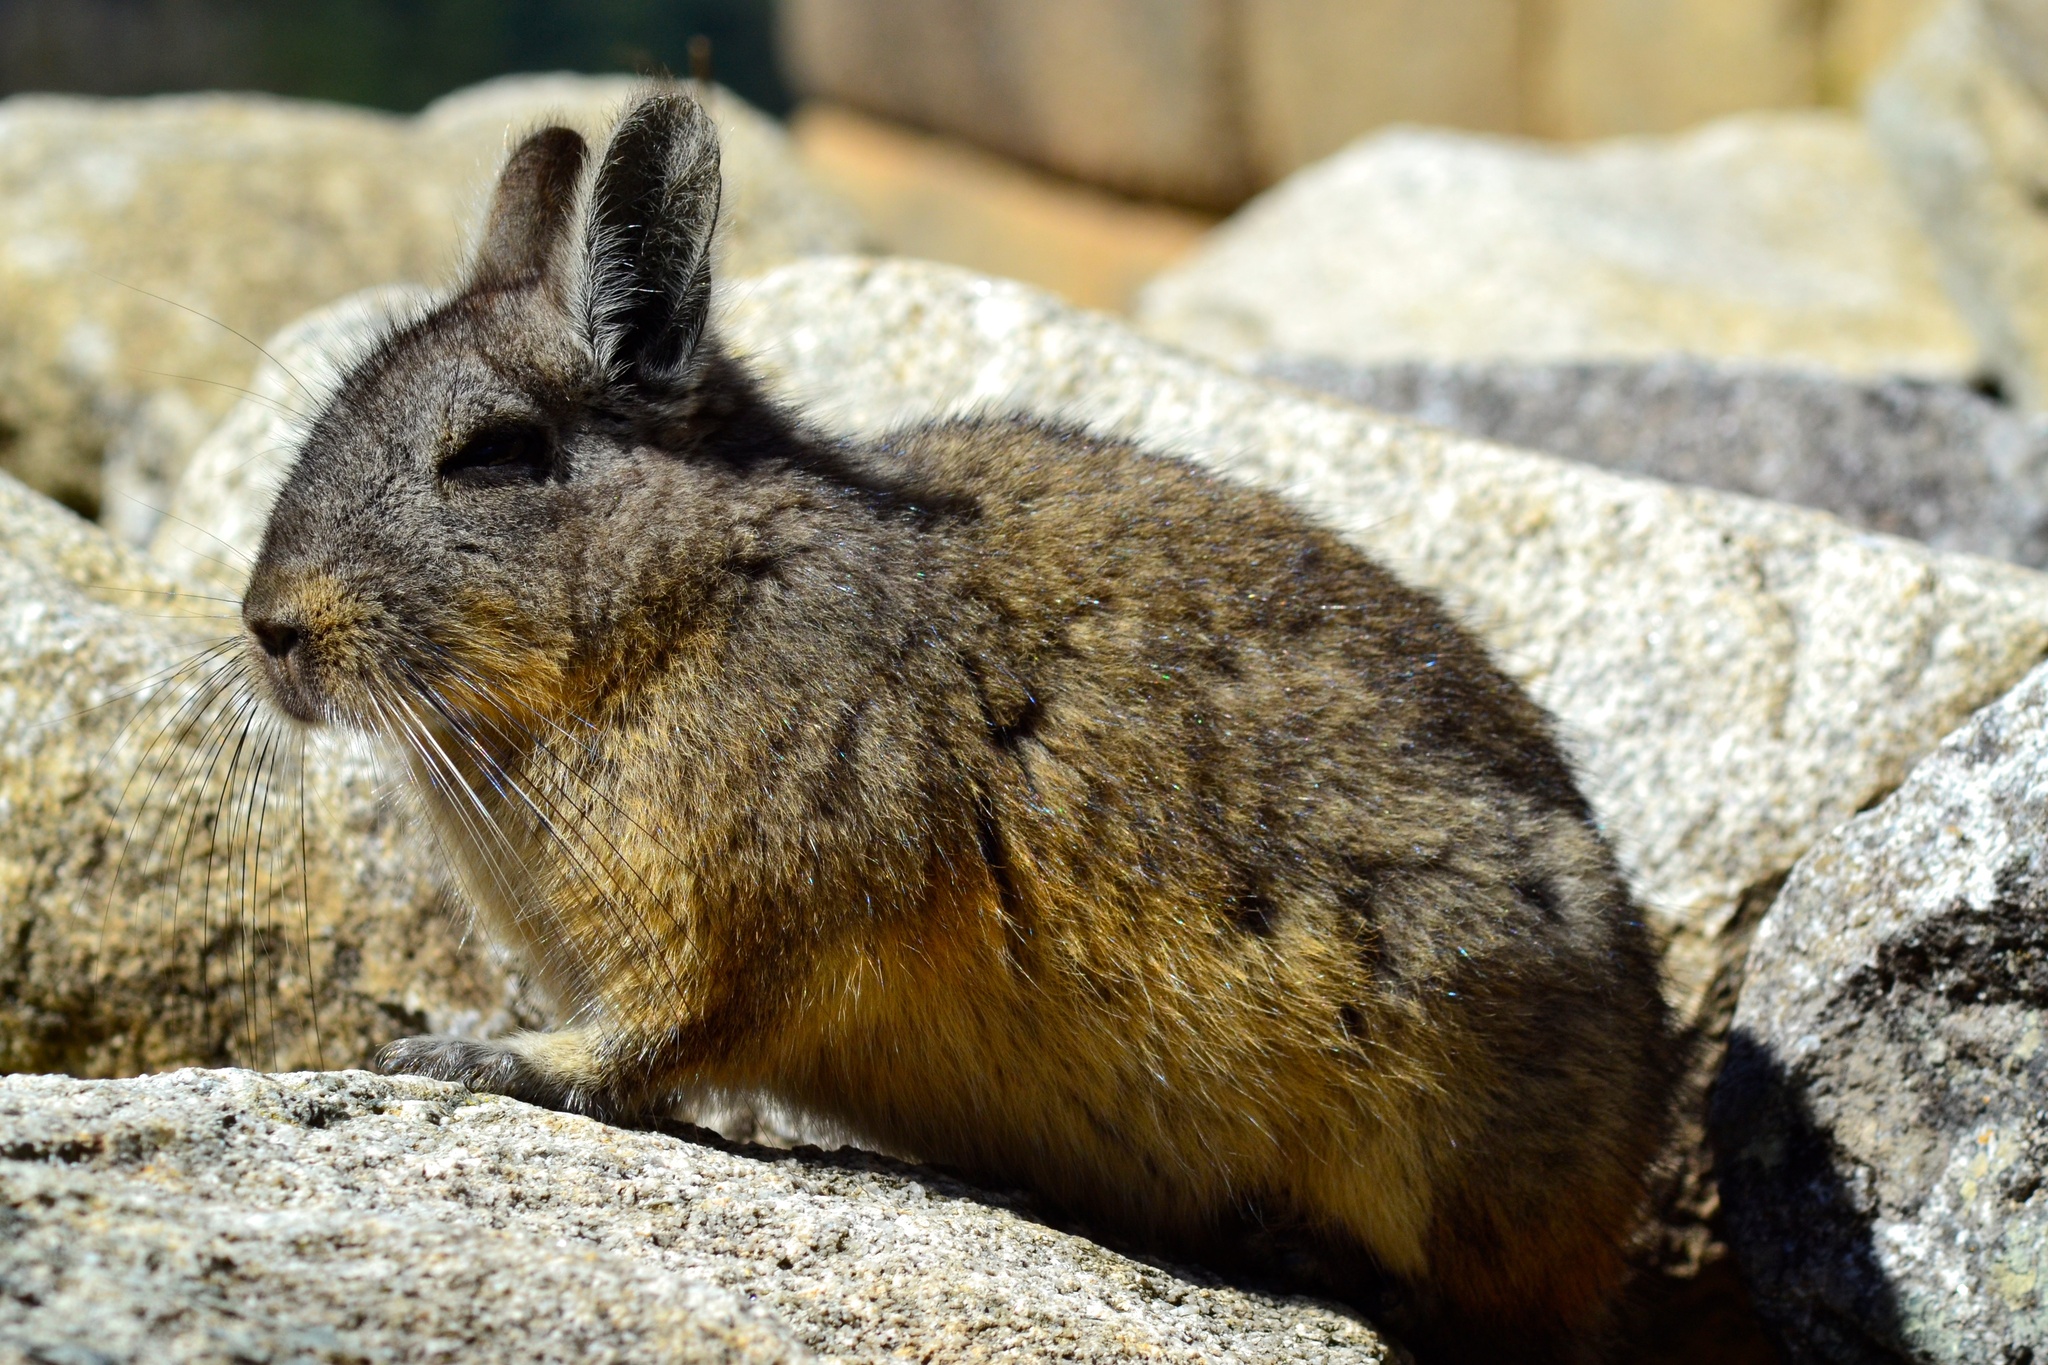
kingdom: Animalia
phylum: Chordata
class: Mammalia
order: Rodentia
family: Chinchillidae
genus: Lagidium
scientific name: Lagidium viscacia
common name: Southern viscacha
